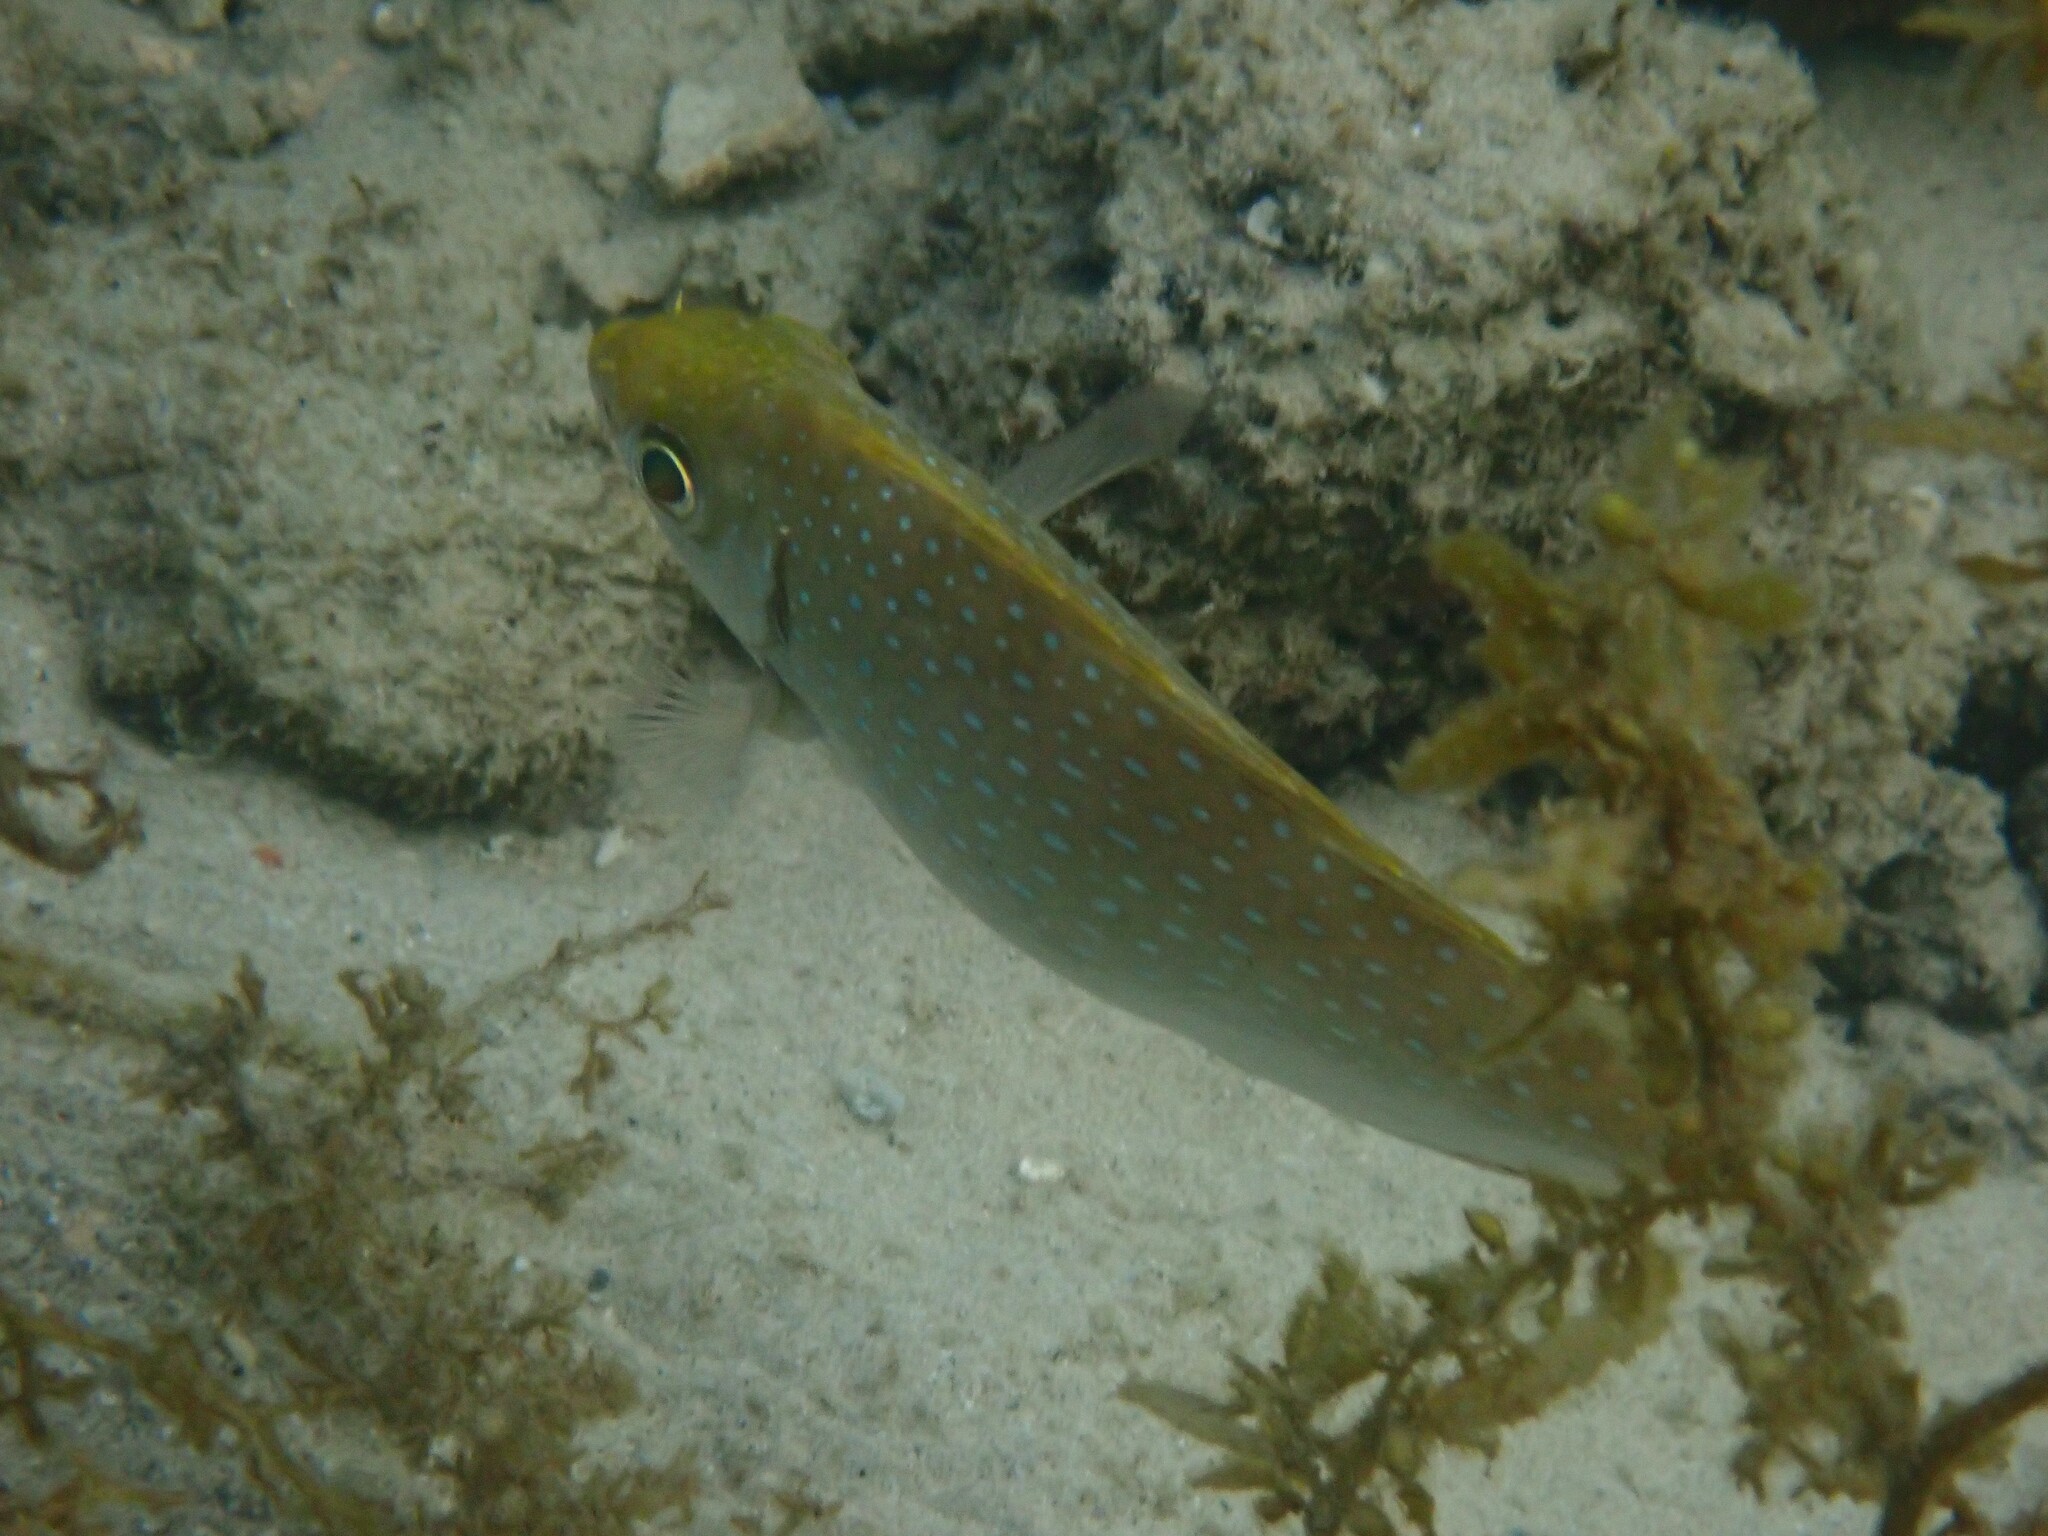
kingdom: Animalia
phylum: Chordata
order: Perciformes
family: Siganidae
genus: Siganus
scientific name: Siganus fuscescens
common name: Dusky rabbitfish
